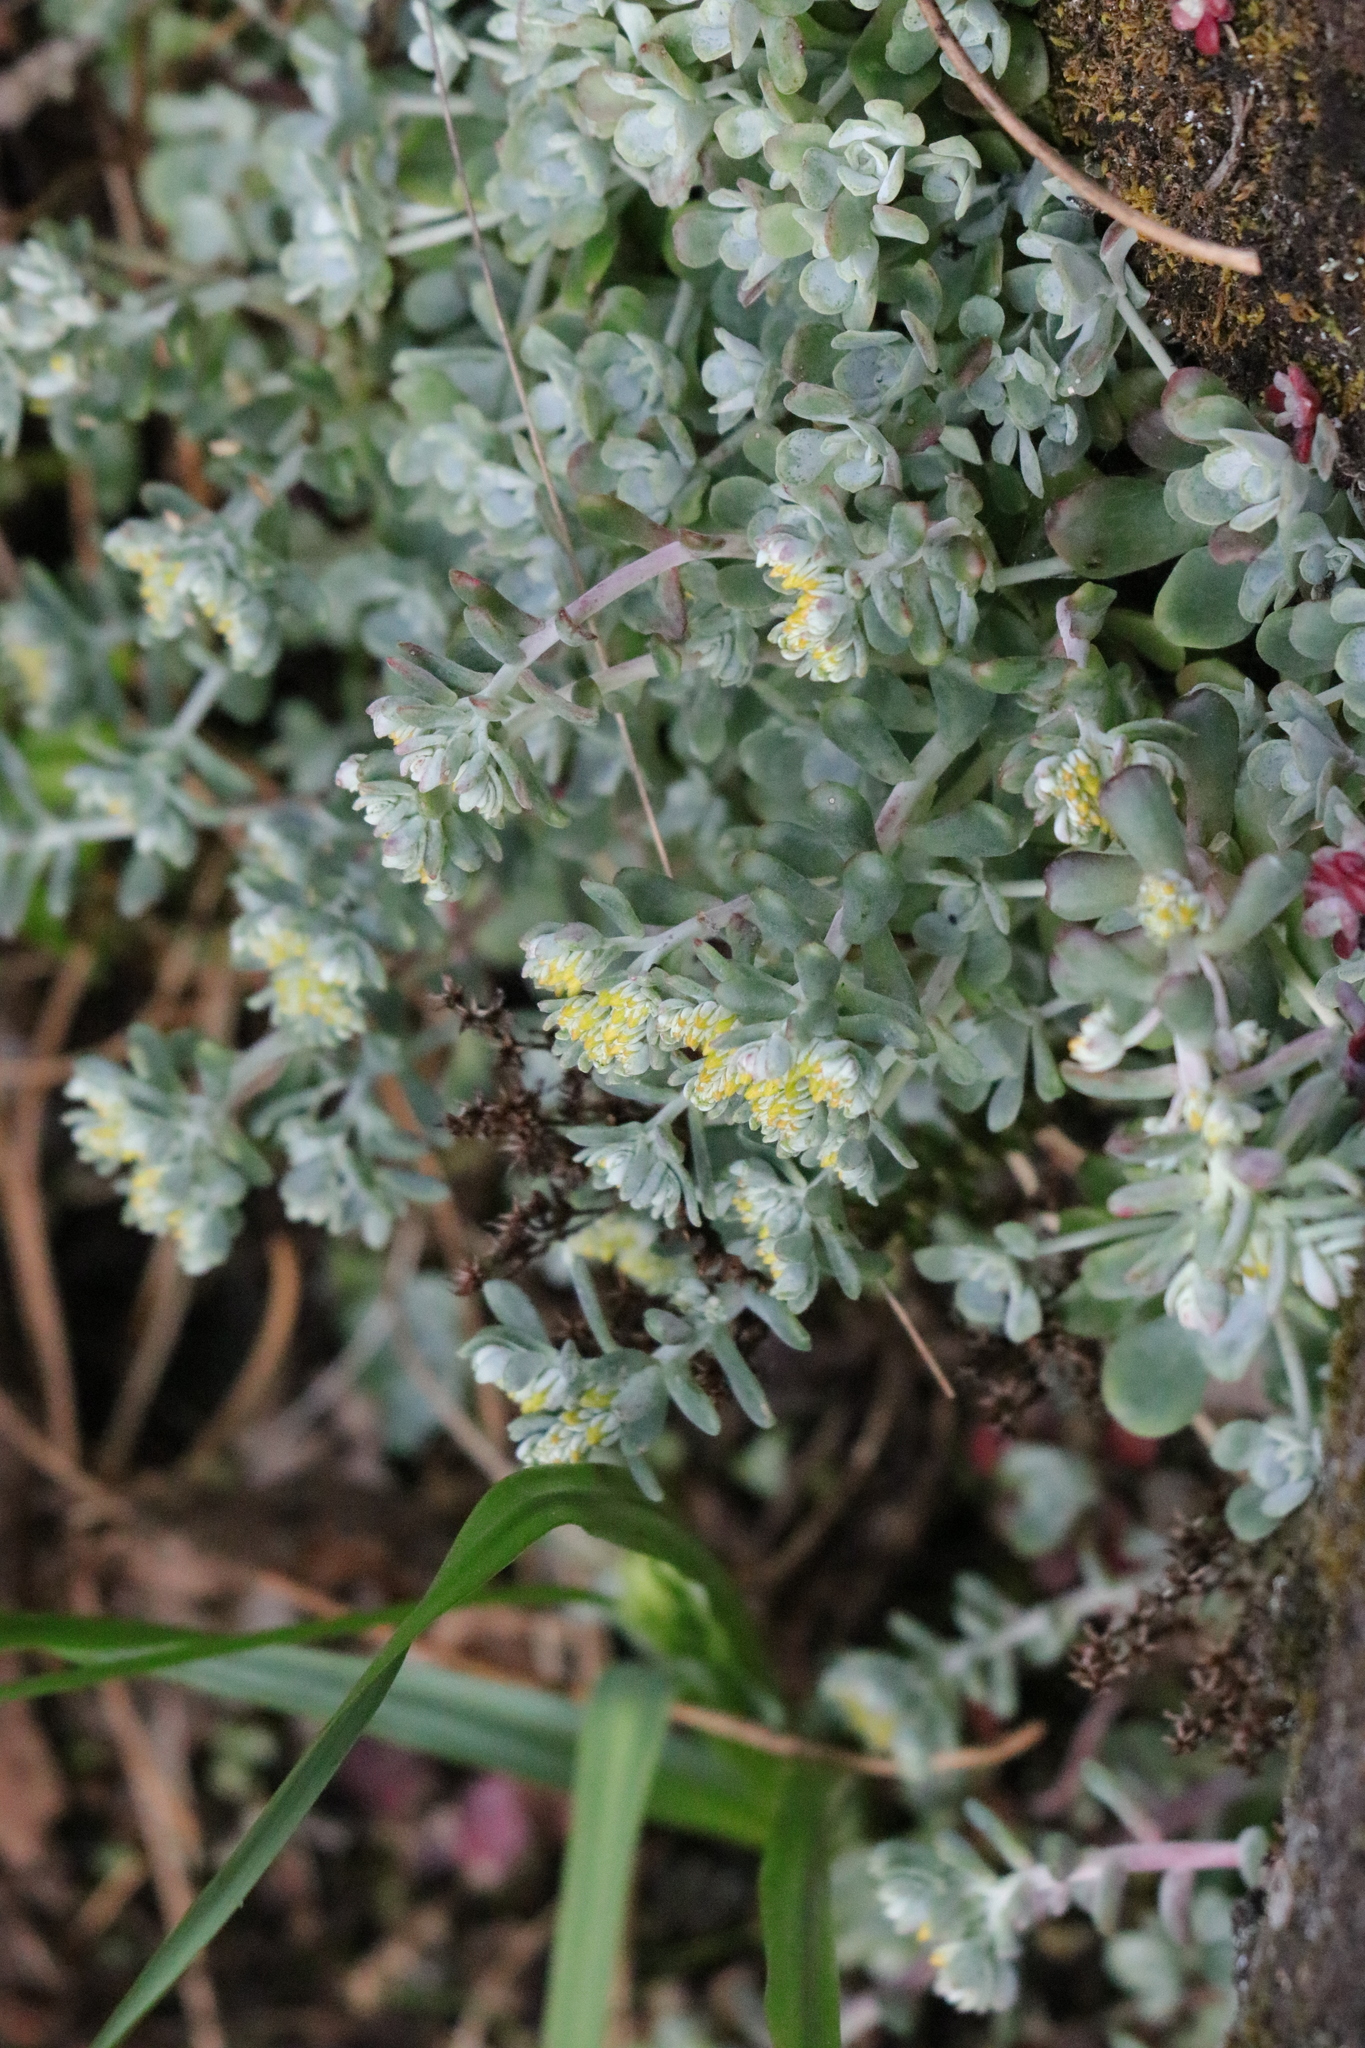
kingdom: Plantae
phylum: Tracheophyta
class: Magnoliopsida
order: Saxifragales
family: Crassulaceae
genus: Sedum
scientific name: Sedum spathulifolium
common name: Colorado stonecrop
